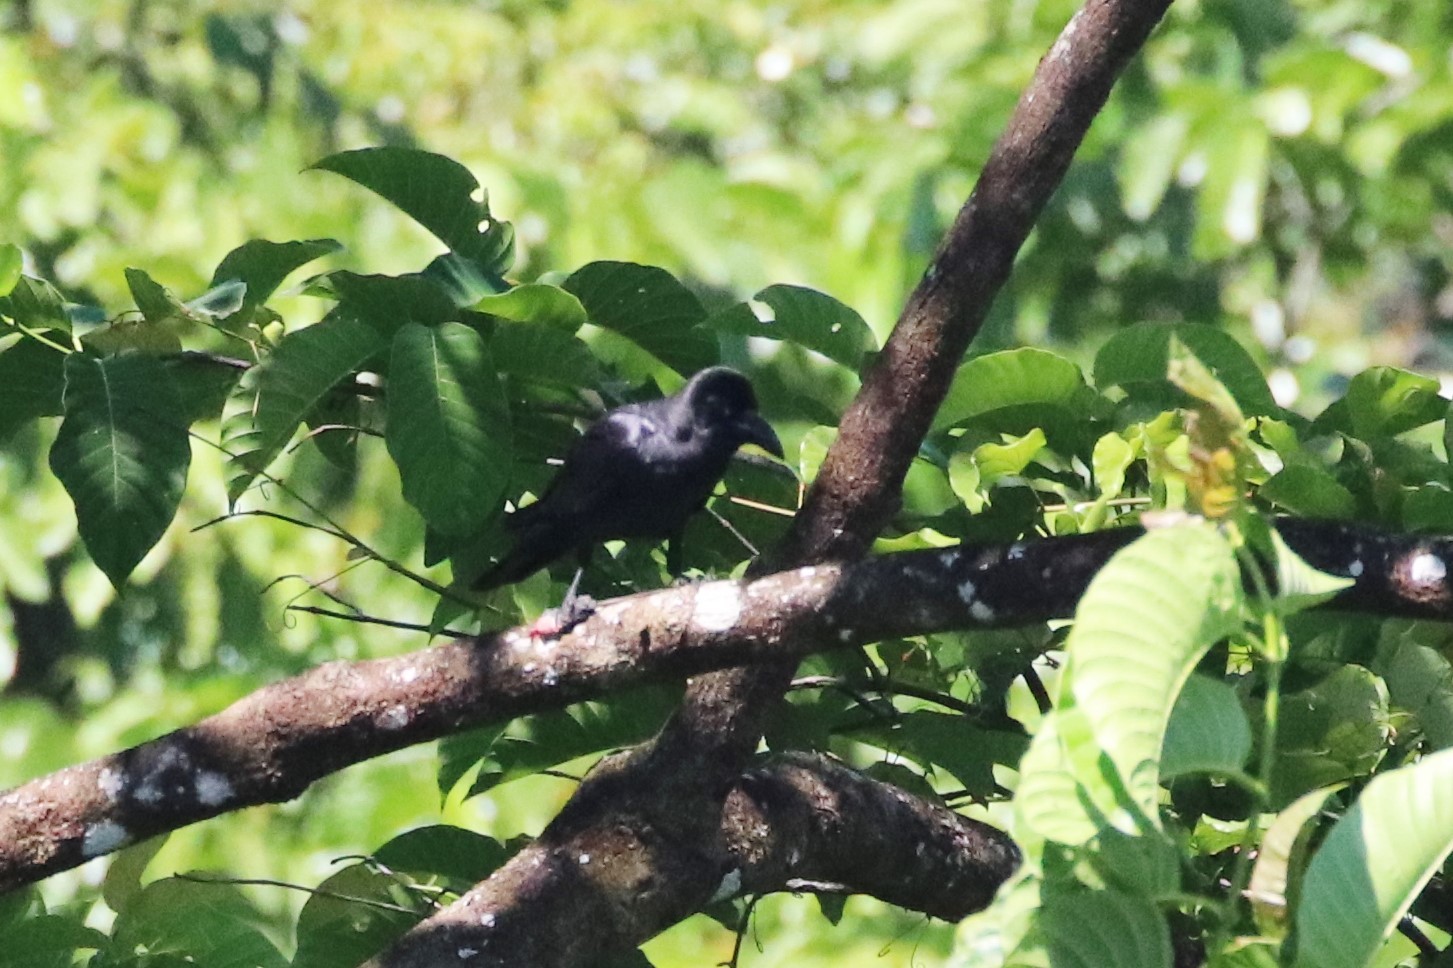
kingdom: Animalia
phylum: Chordata
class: Aves
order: Passeriformes
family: Corvidae
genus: Corvus
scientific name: Corvus macrorhynchos
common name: Large-billed crow
